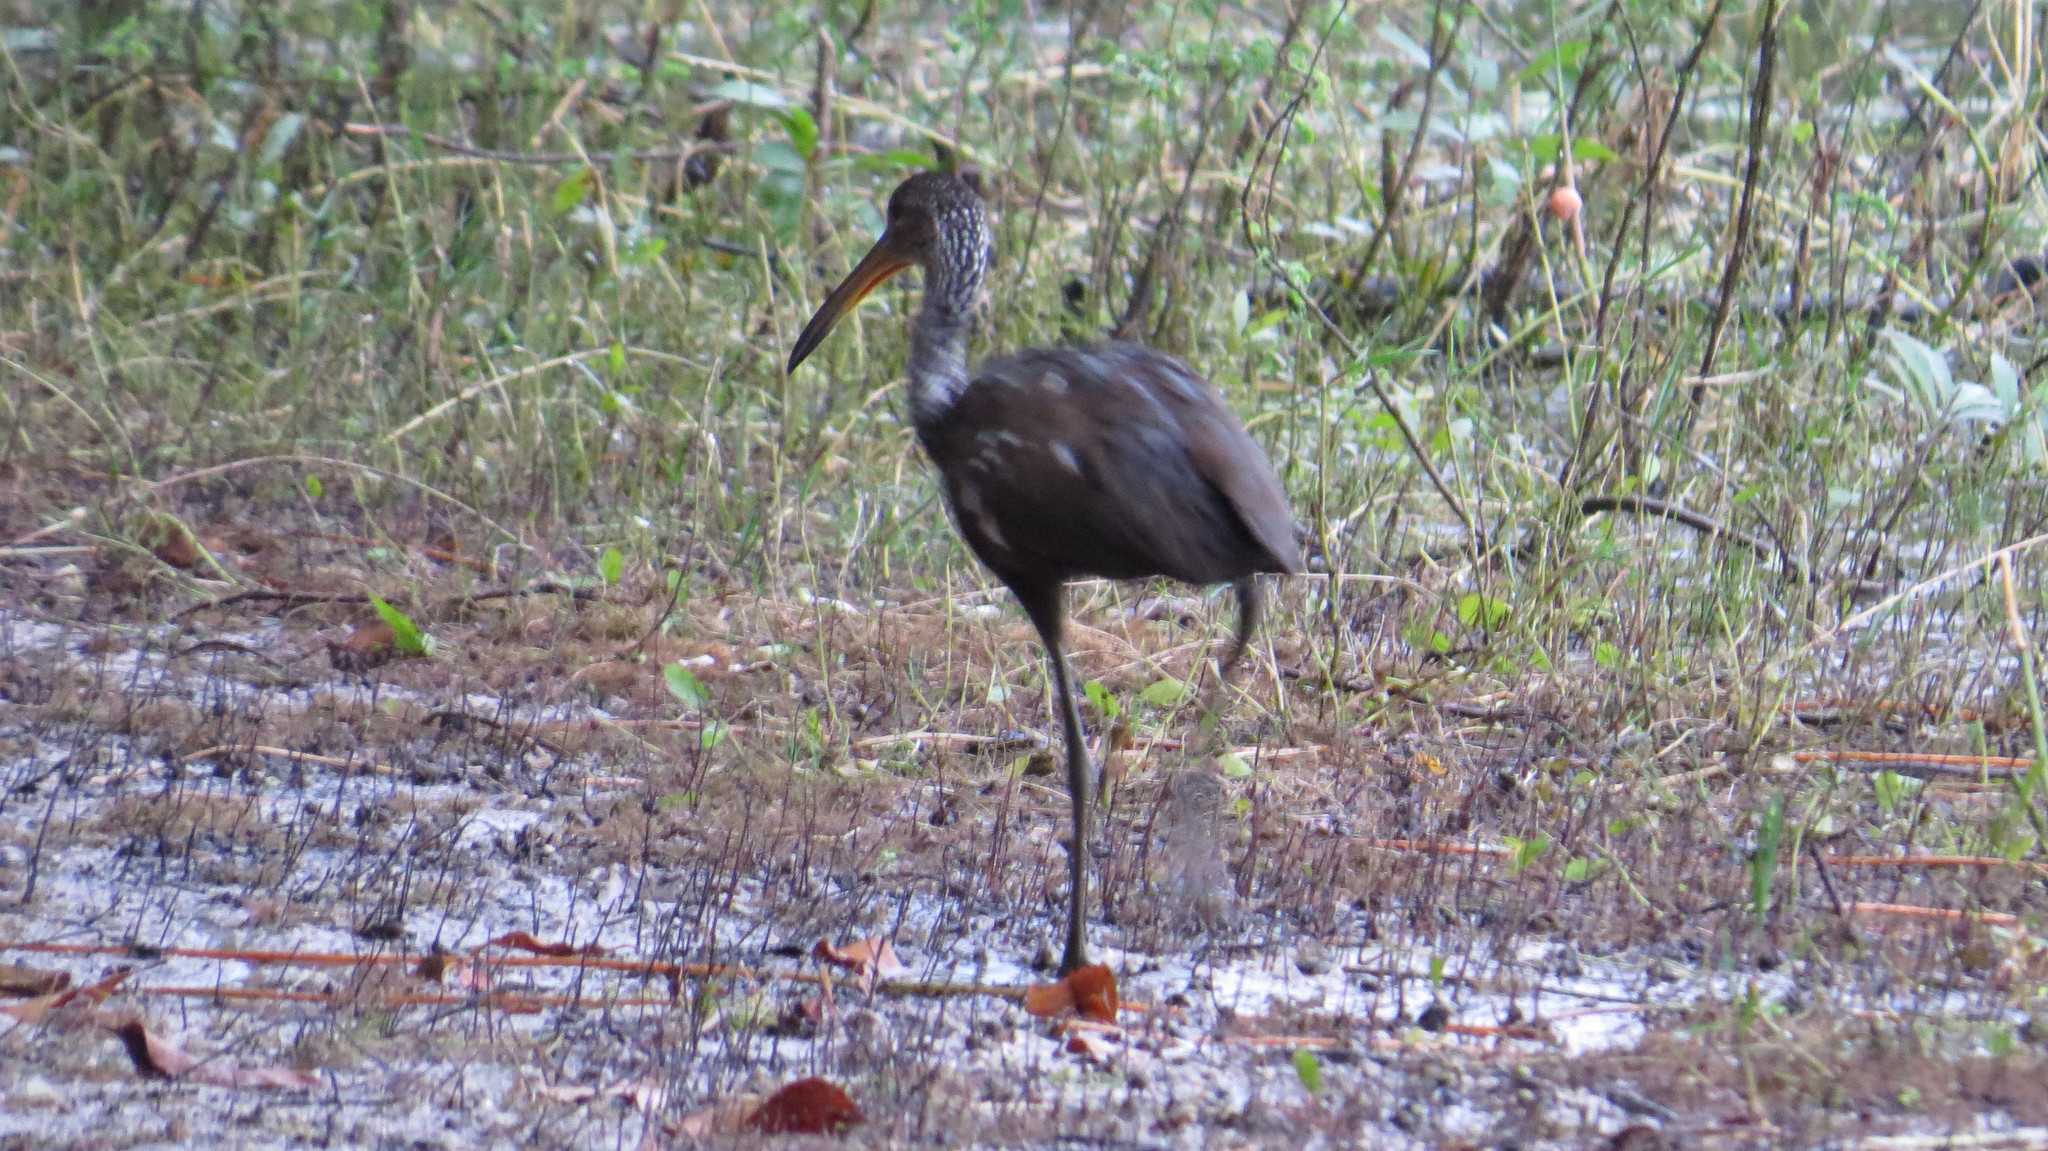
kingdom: Animalia
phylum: Chordata
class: Aves
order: Gruiformes
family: Aramidae
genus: Aramus
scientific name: Aramus guarauna
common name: Limpkin
